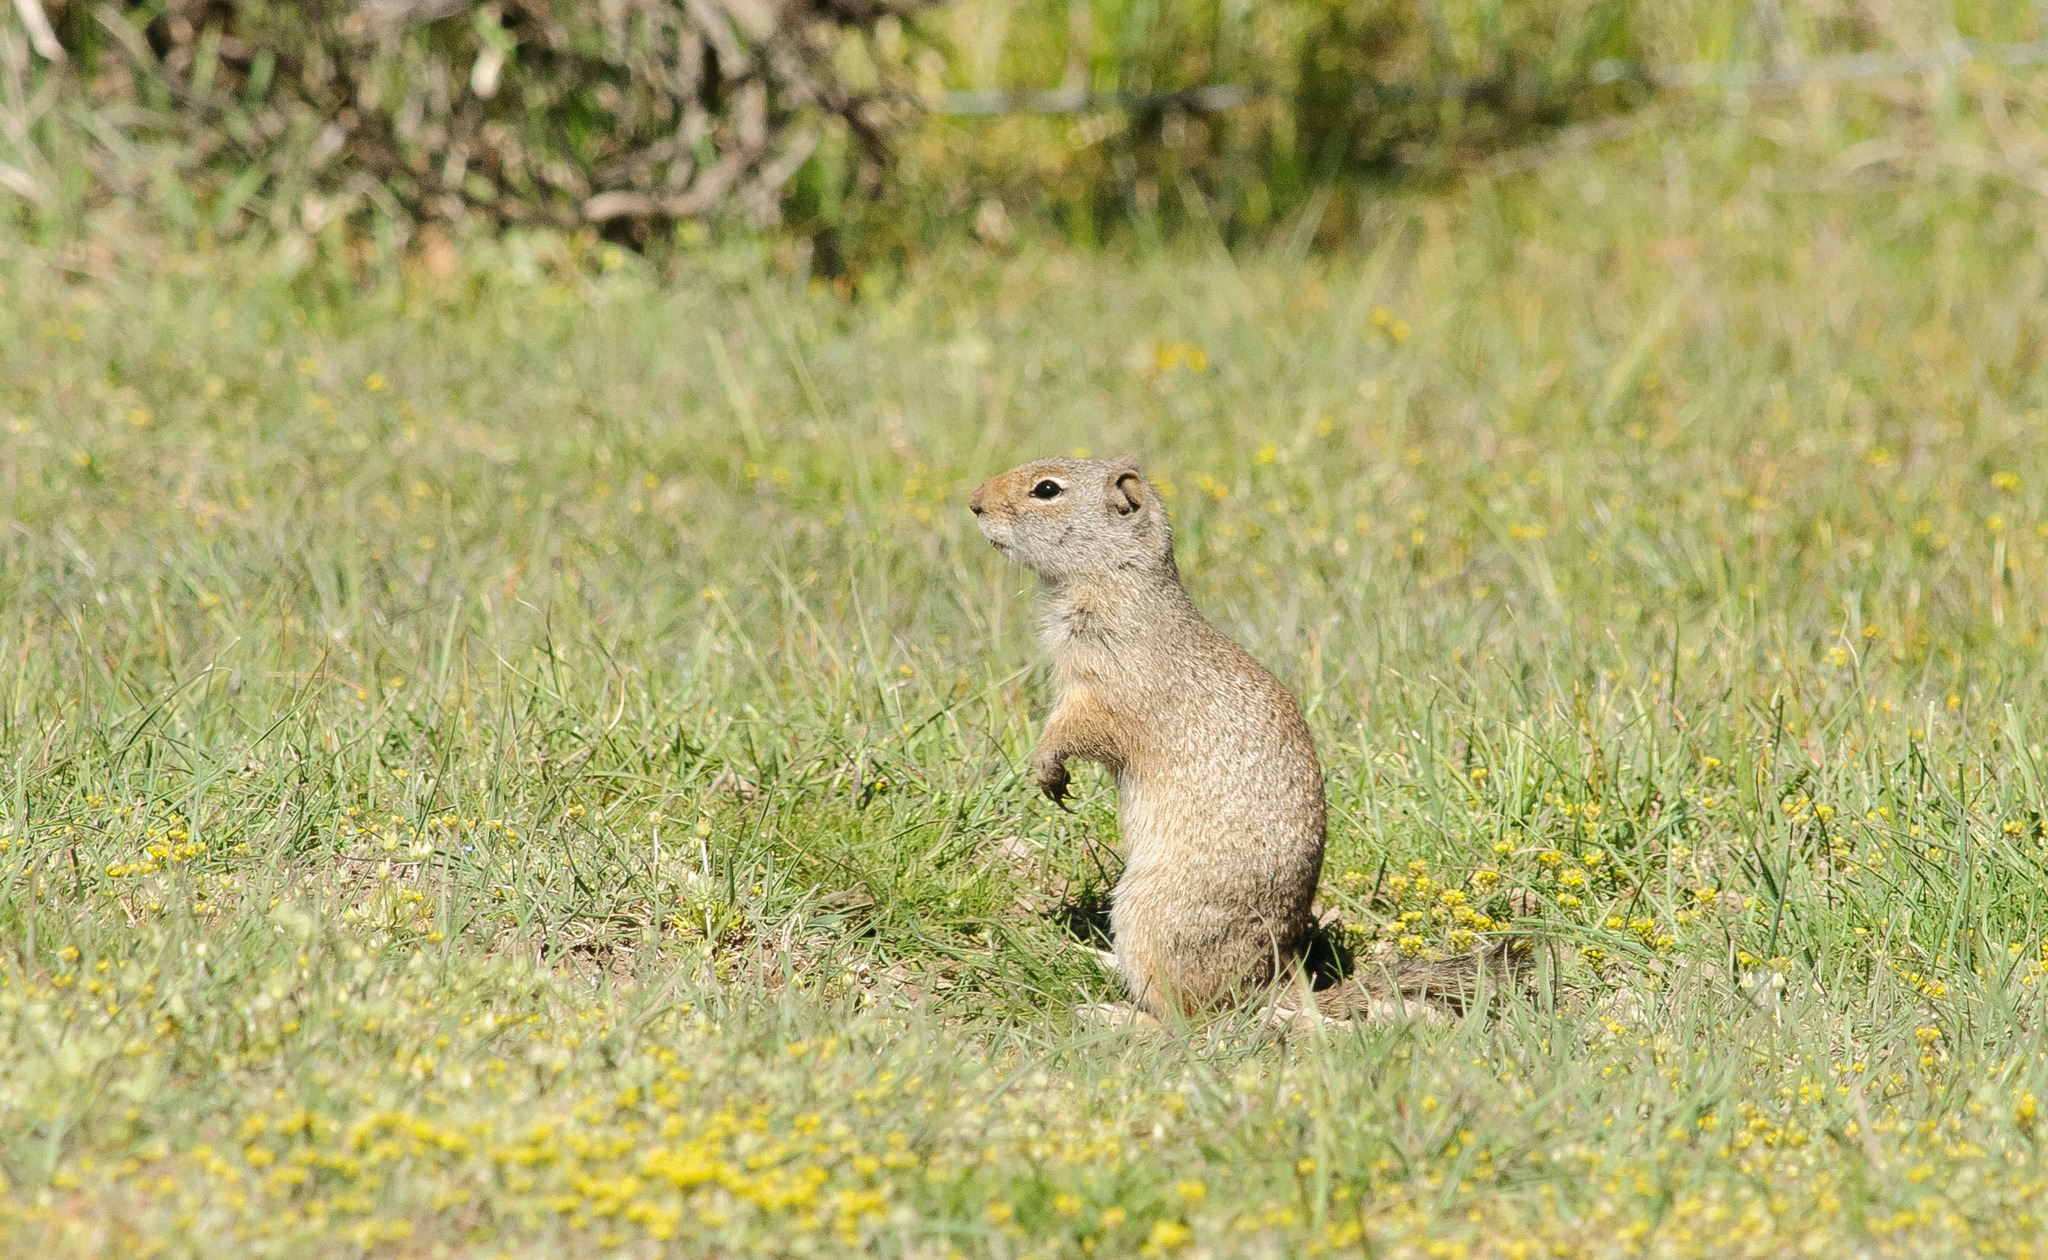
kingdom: Animalia
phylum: Chordata
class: Mammalia
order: Rodentia
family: Sciuridae
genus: Urocitellus
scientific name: Urocitellus armatus
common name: Uinta ground squirrel
